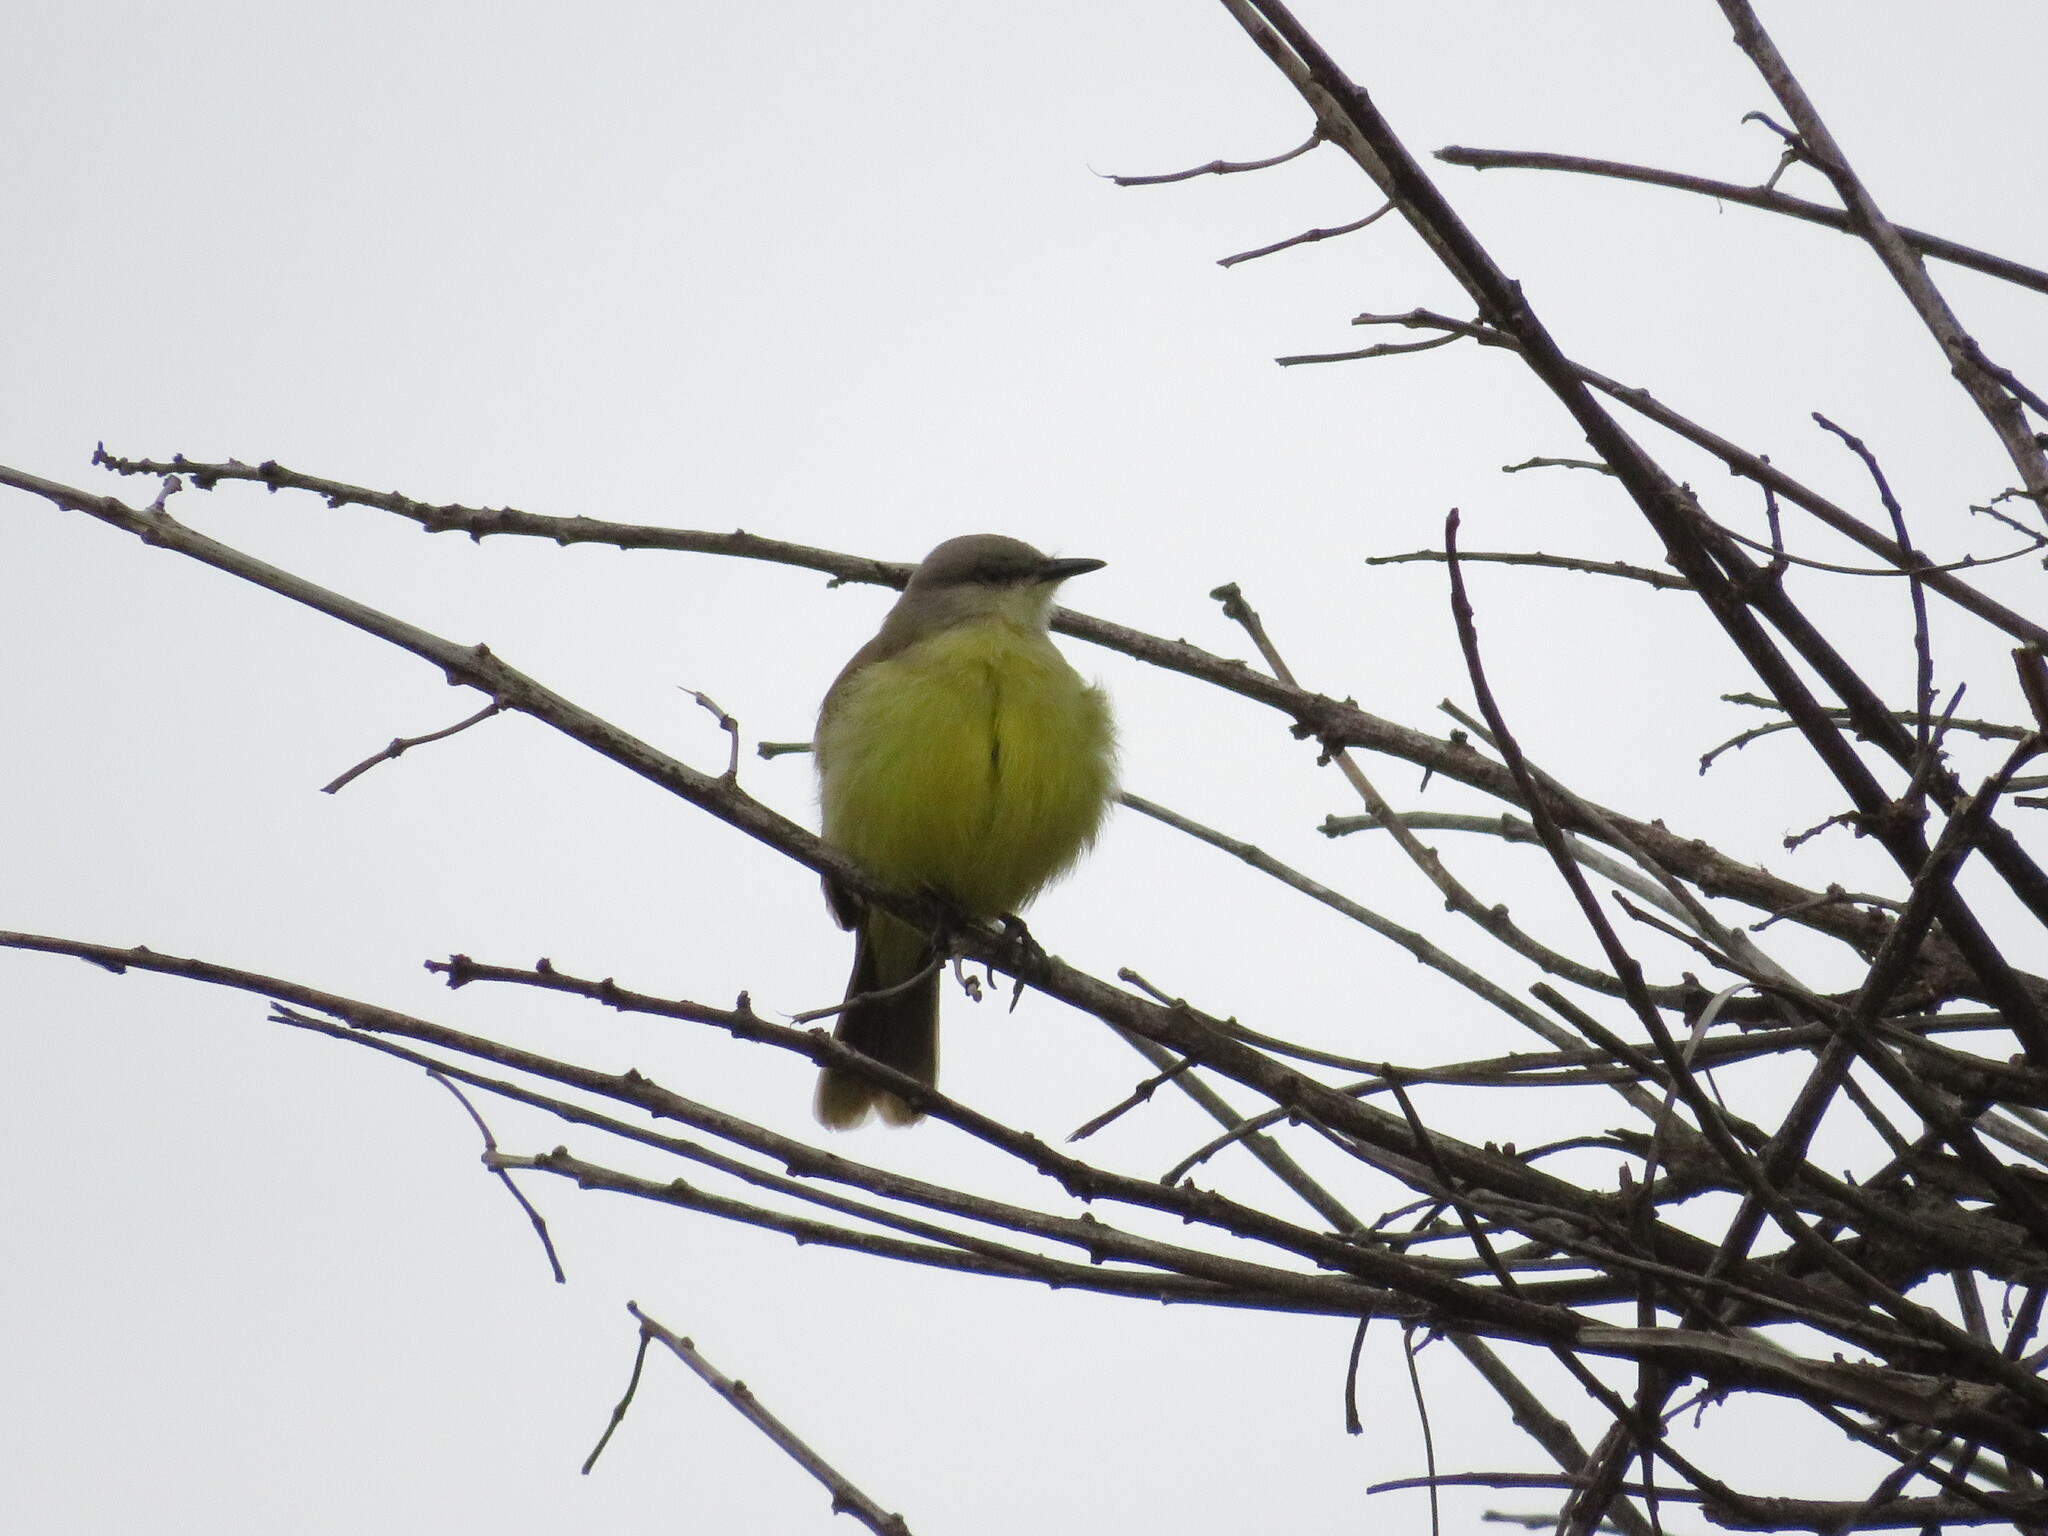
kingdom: Animalia
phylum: Chordata
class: Aves
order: Passeriformes
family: Tyrannidae
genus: Machetornis
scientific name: Machetornis rixosa
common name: Cattle tyrant
